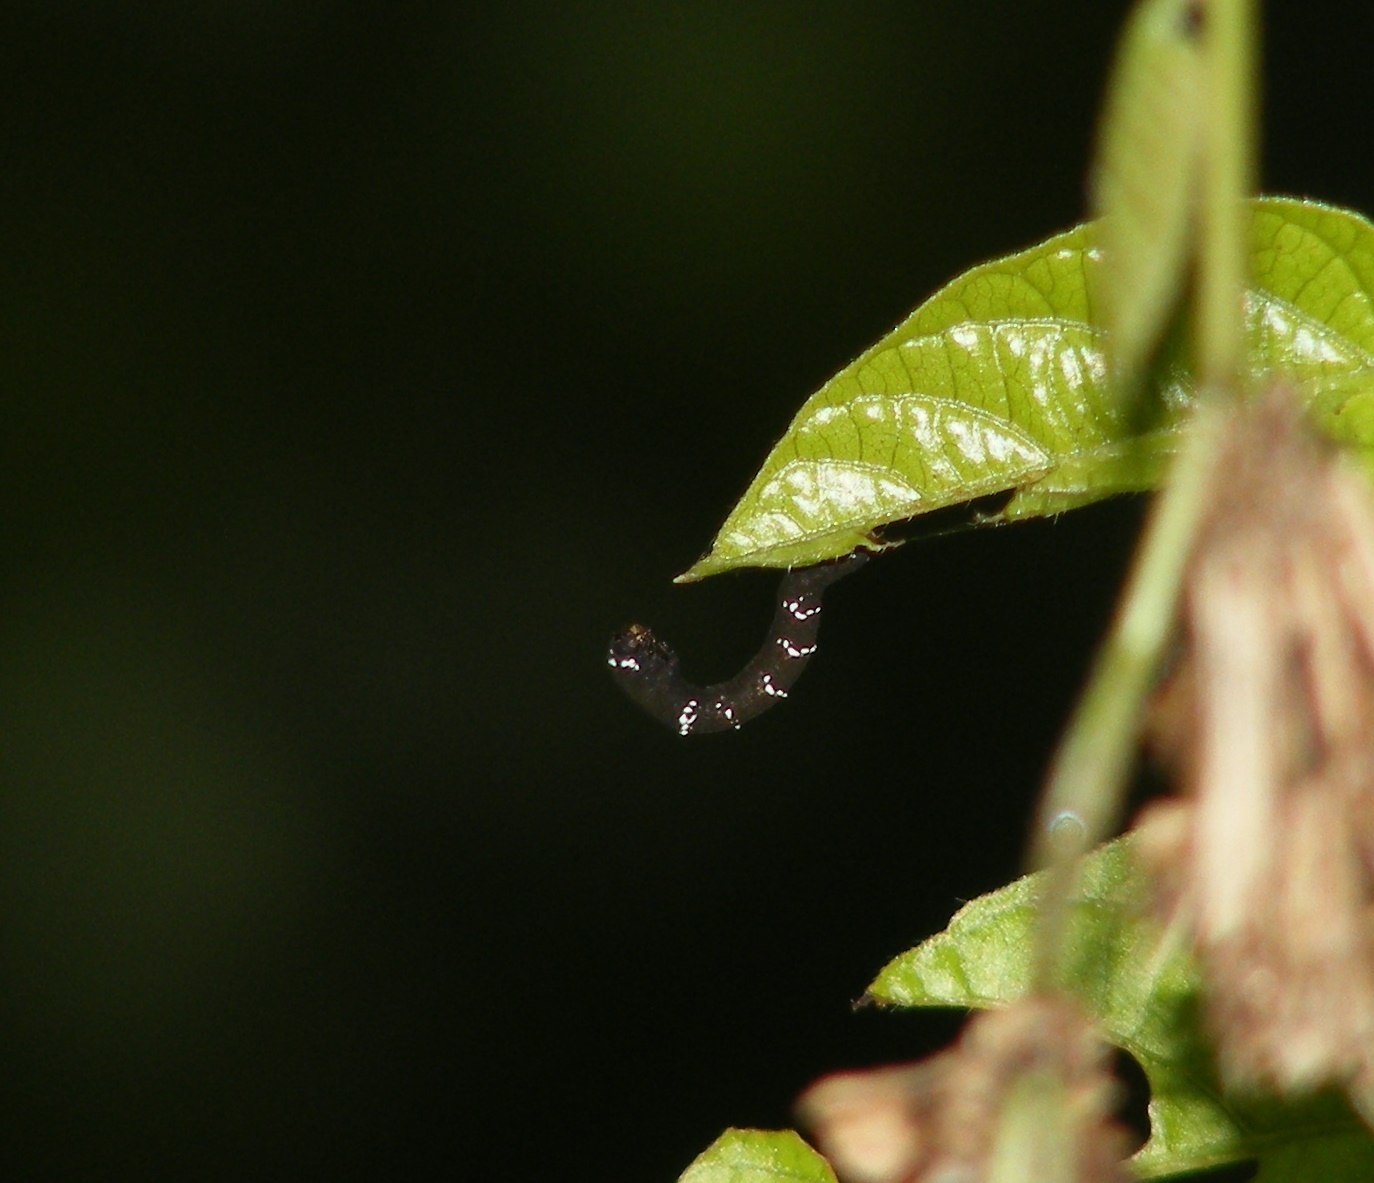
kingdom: Animalia
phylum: Arthropoda
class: Insecta
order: Lepidoptera
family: Geometridae
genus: Hyposidra
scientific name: Hyposidra talaca
